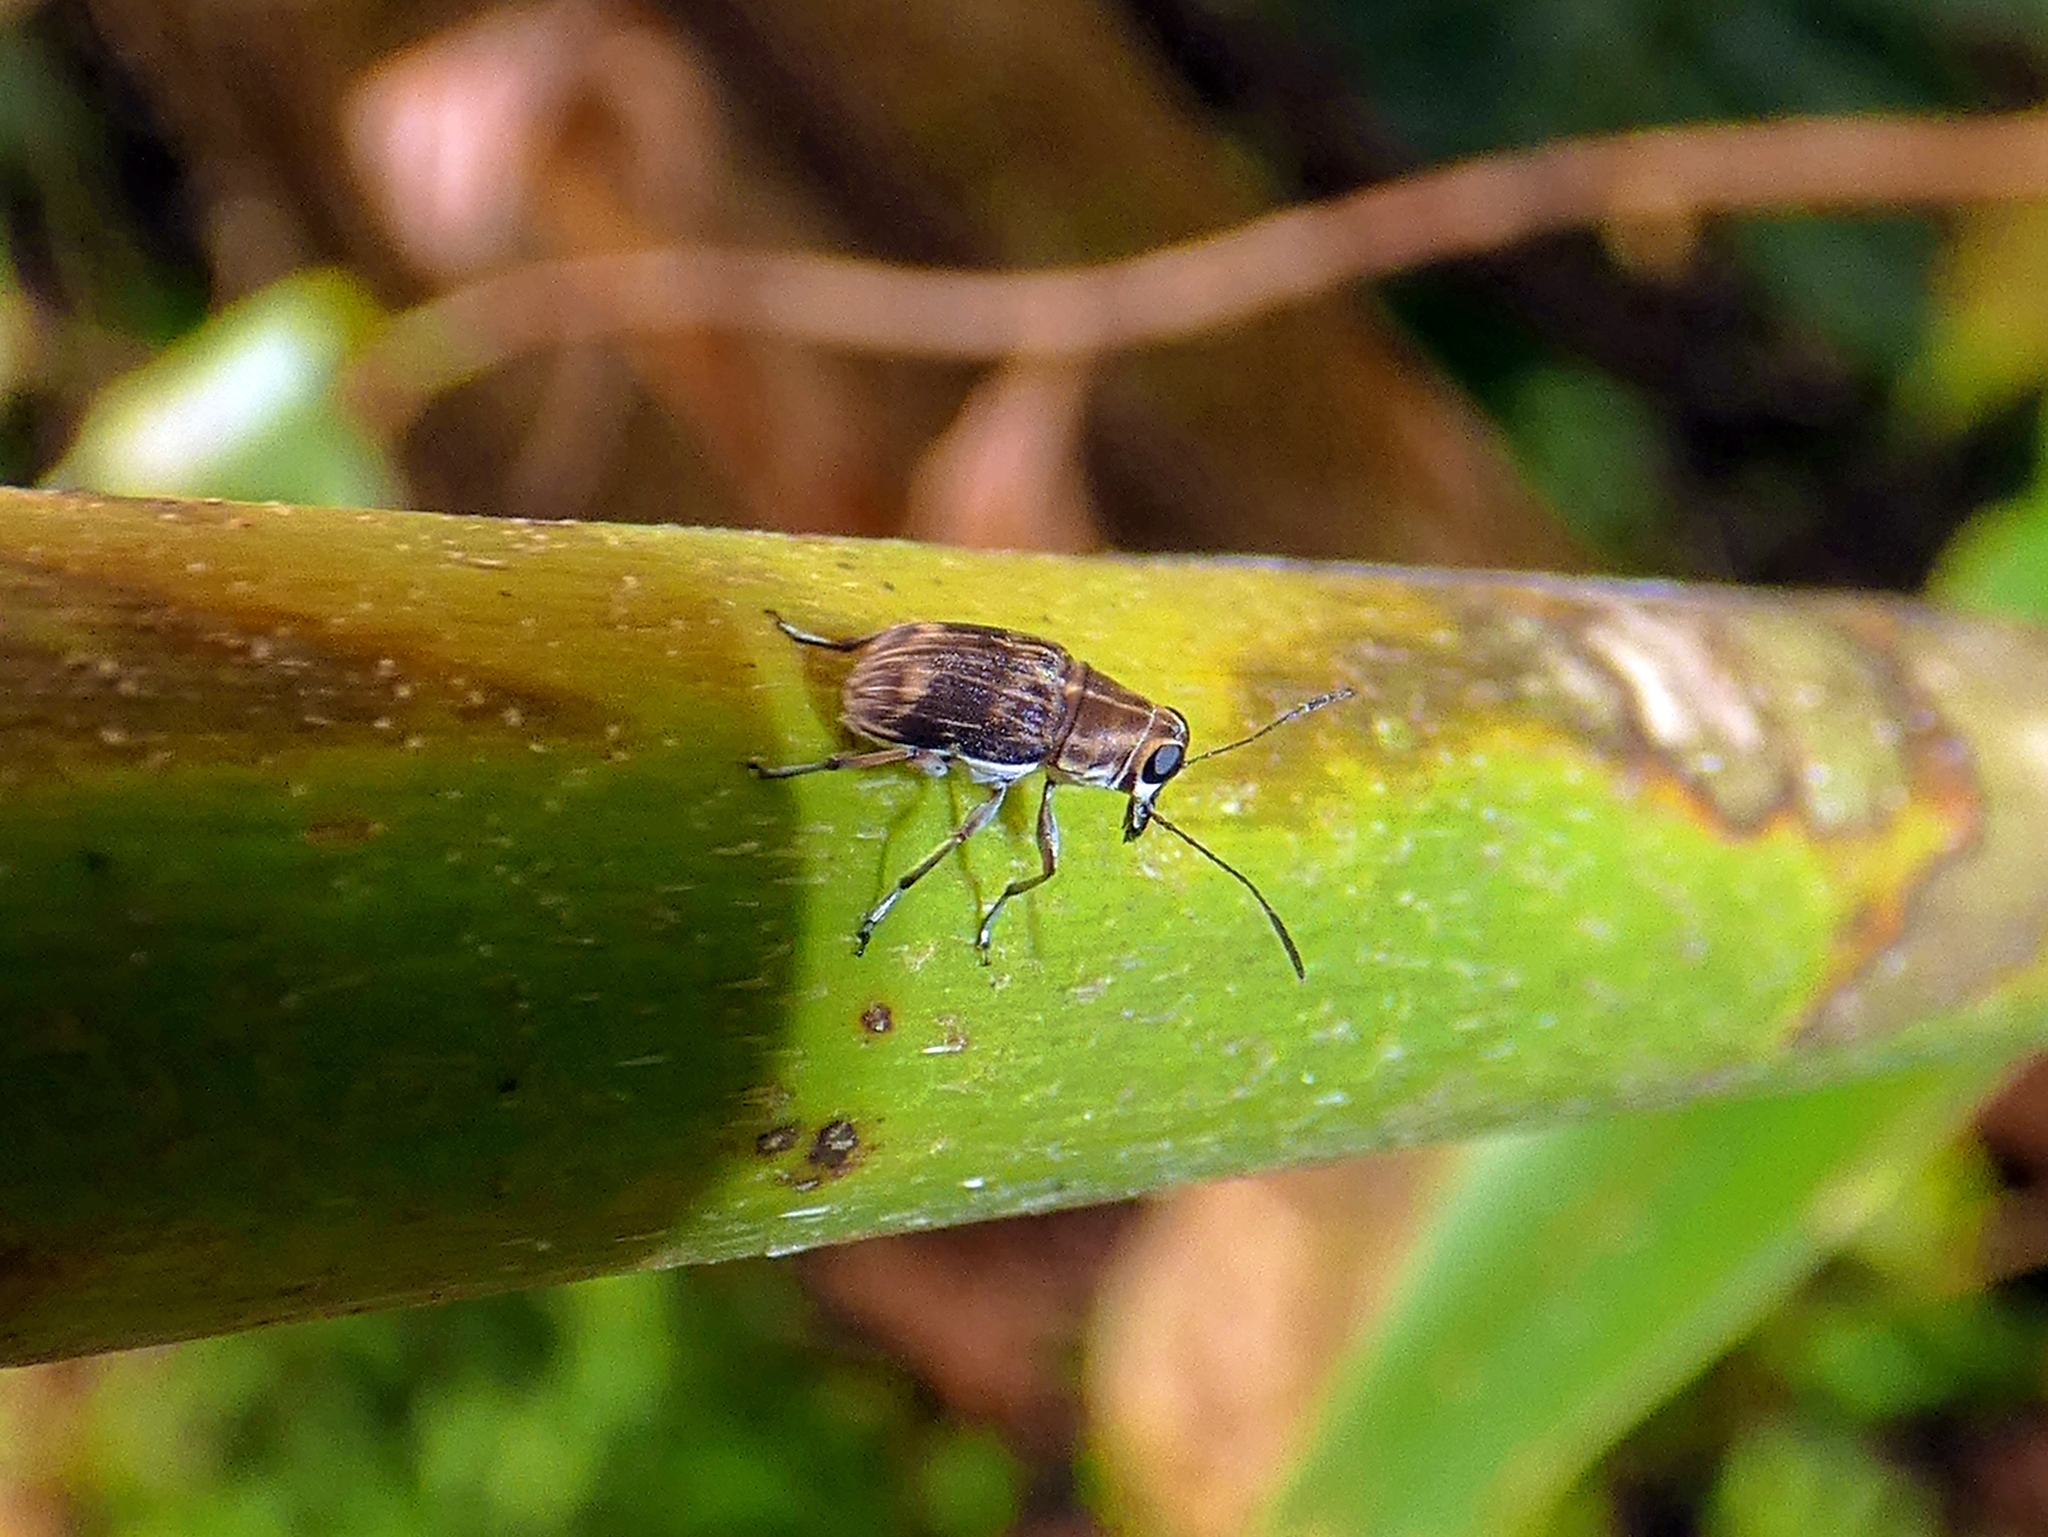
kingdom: Animalia
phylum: Arthropoda
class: Insecta
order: Coleoptera
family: Anthribidae
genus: Hucus
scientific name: Hucus persimilis
